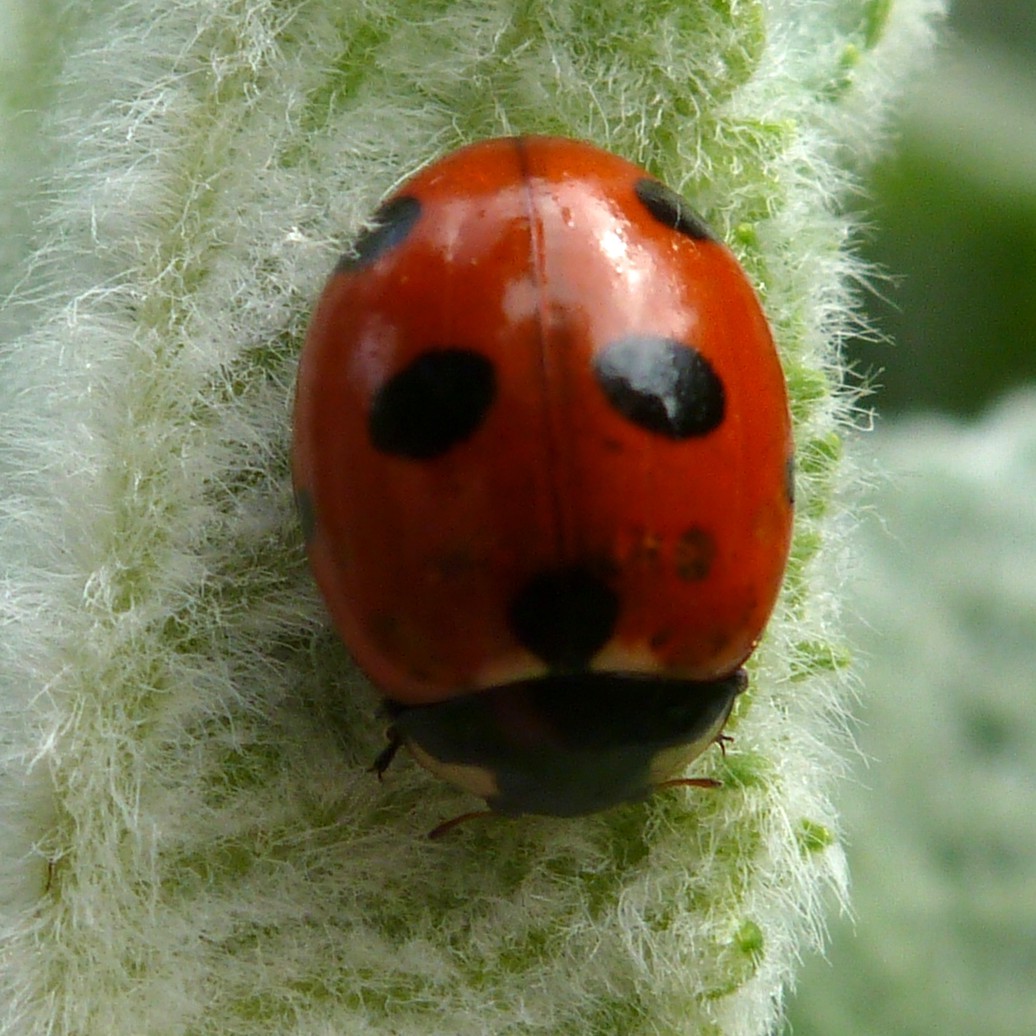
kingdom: Animalia
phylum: Arthropoda
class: Insecta
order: Coleoptera
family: Coccinellidae
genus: Coccinella
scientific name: Coccinella septempunctata
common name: Sevenspotted lady beetle
